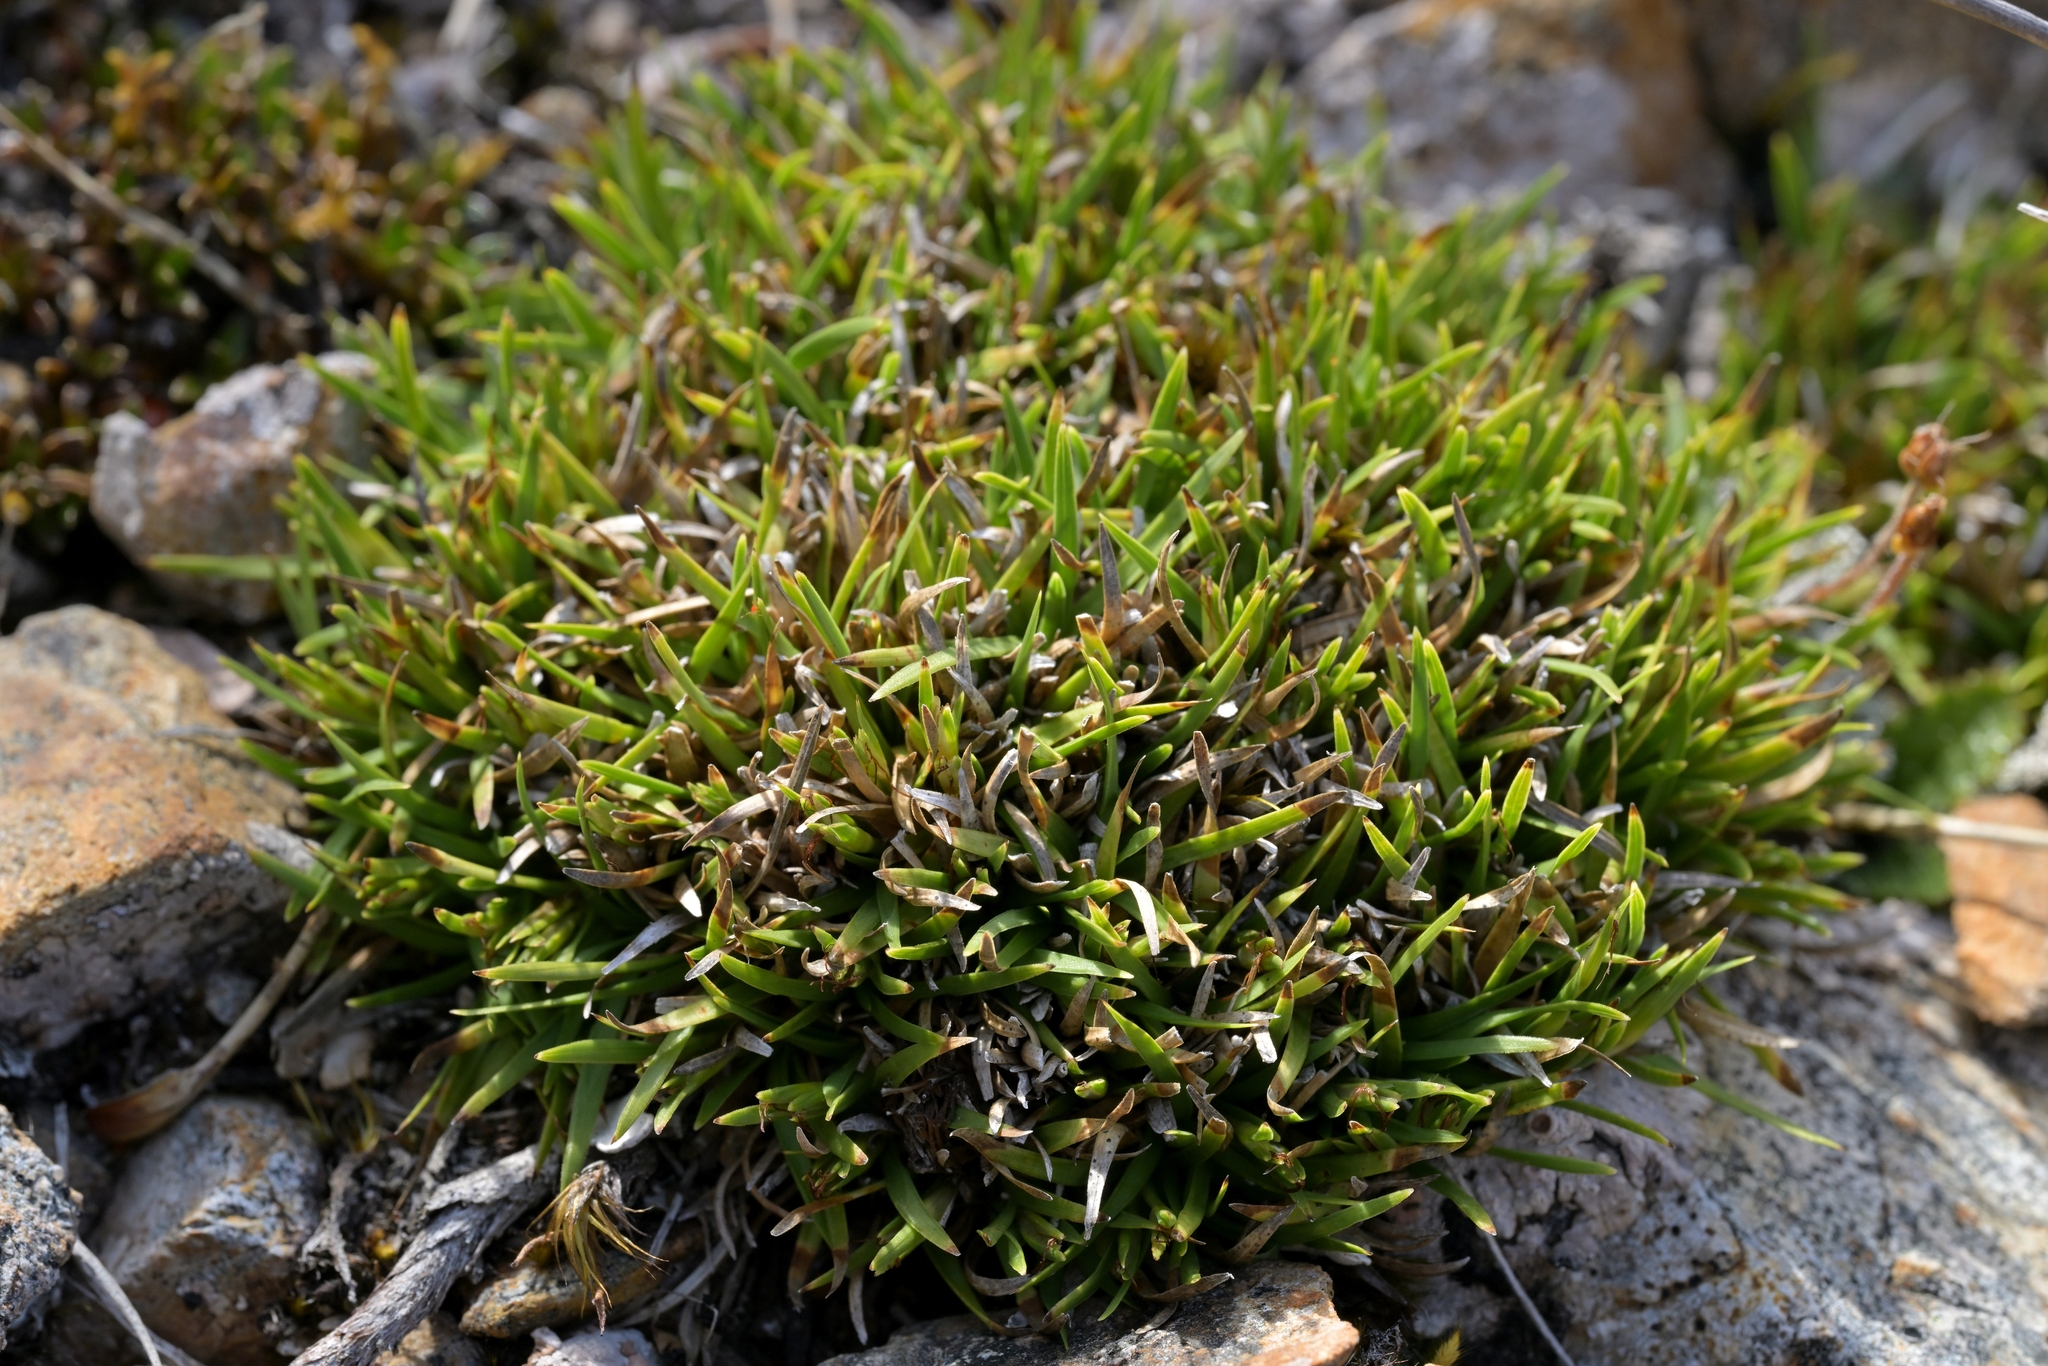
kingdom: Plantae
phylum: Tracheophyta
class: Liliopsida
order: Poales
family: Cyperaceae
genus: Oreobolus
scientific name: Oreobolus impar
